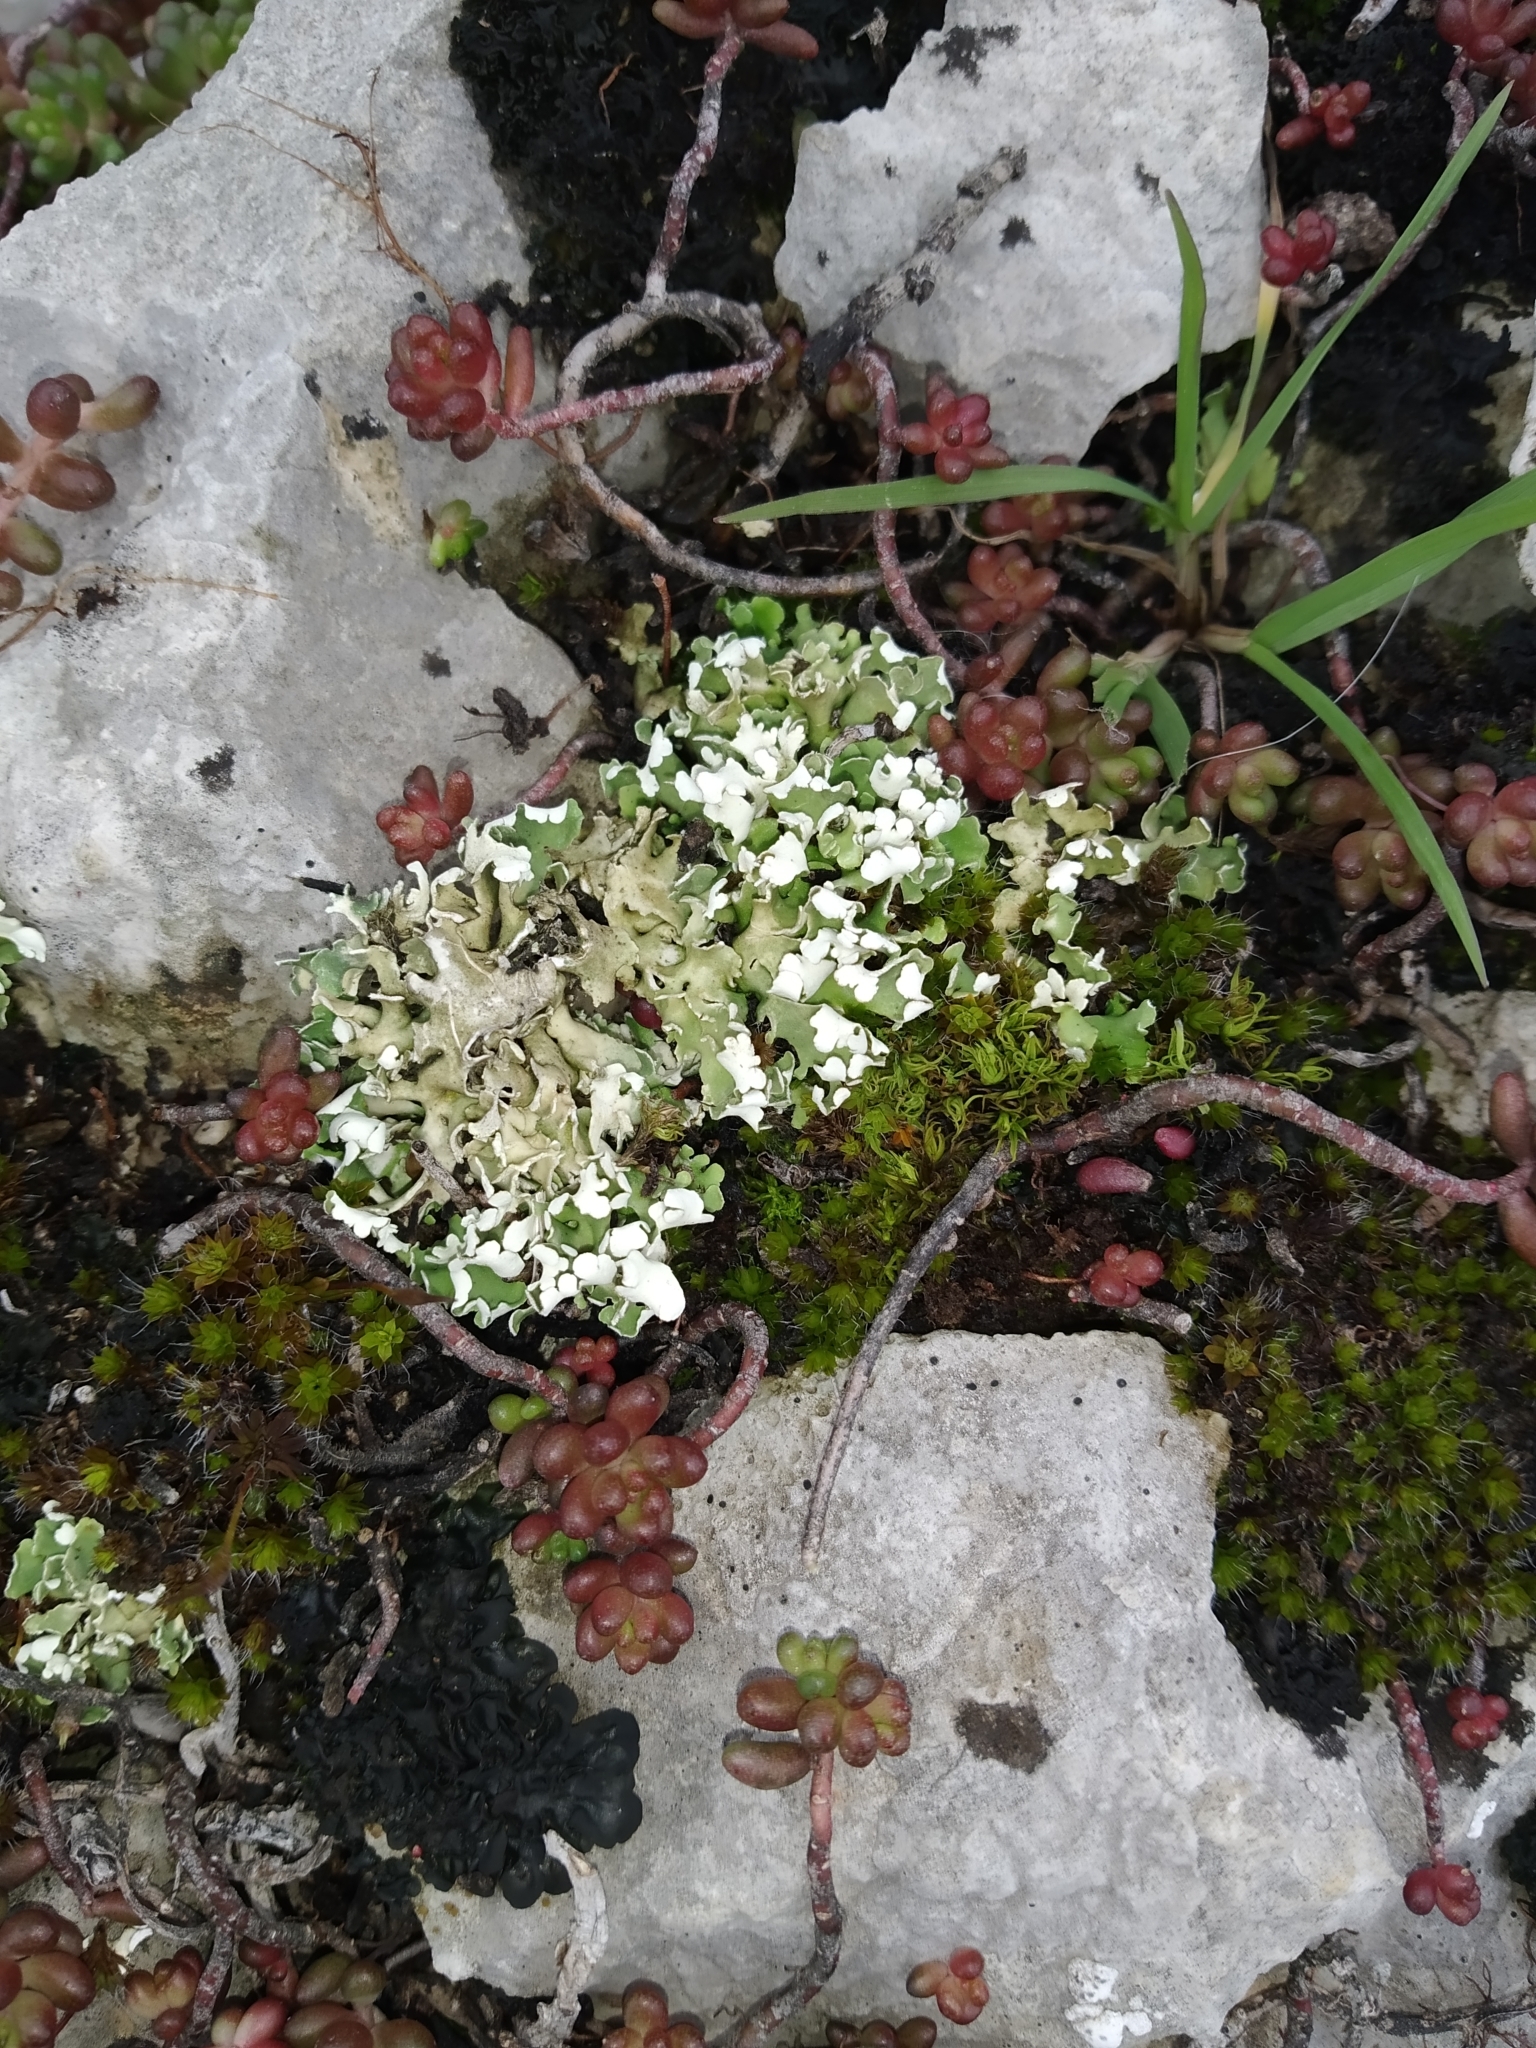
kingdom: Fungi
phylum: Ascomycota
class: Lecanoromycetes
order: Lecanorales
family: Cladoniaceae
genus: Cladonia
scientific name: Cladonia foliacea
